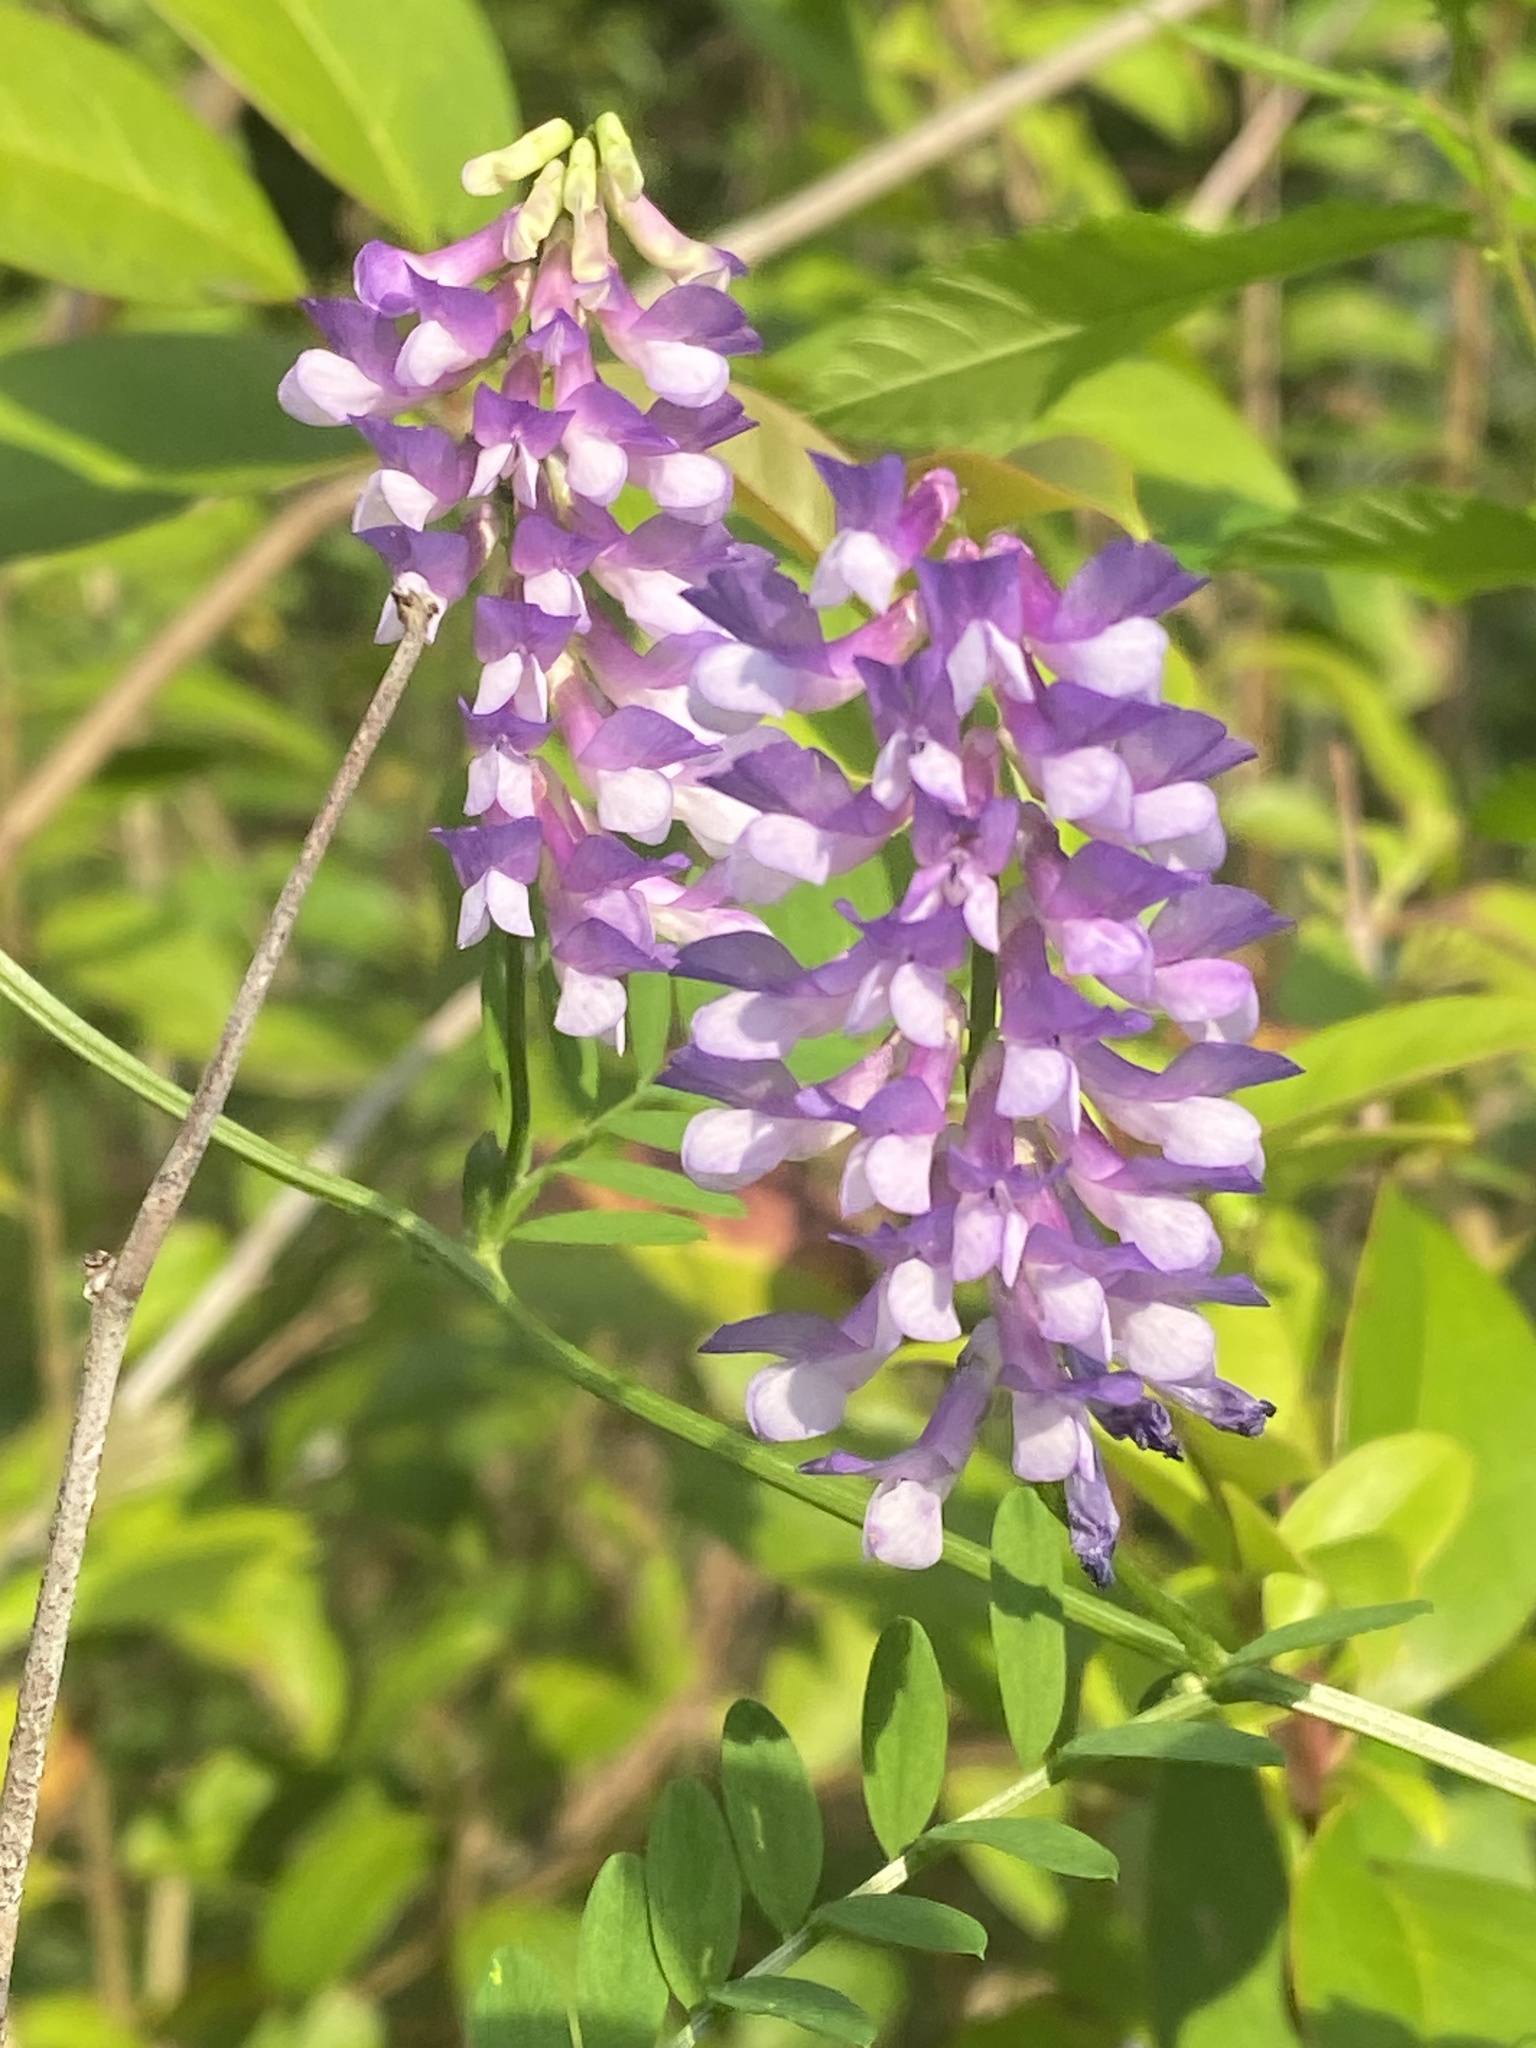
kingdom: Plantae
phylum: Tracheophyta
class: Magnoliopsida
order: Fabales
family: Fabaceae
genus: Vicia
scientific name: Vicia villosa
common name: Fodder vetch
